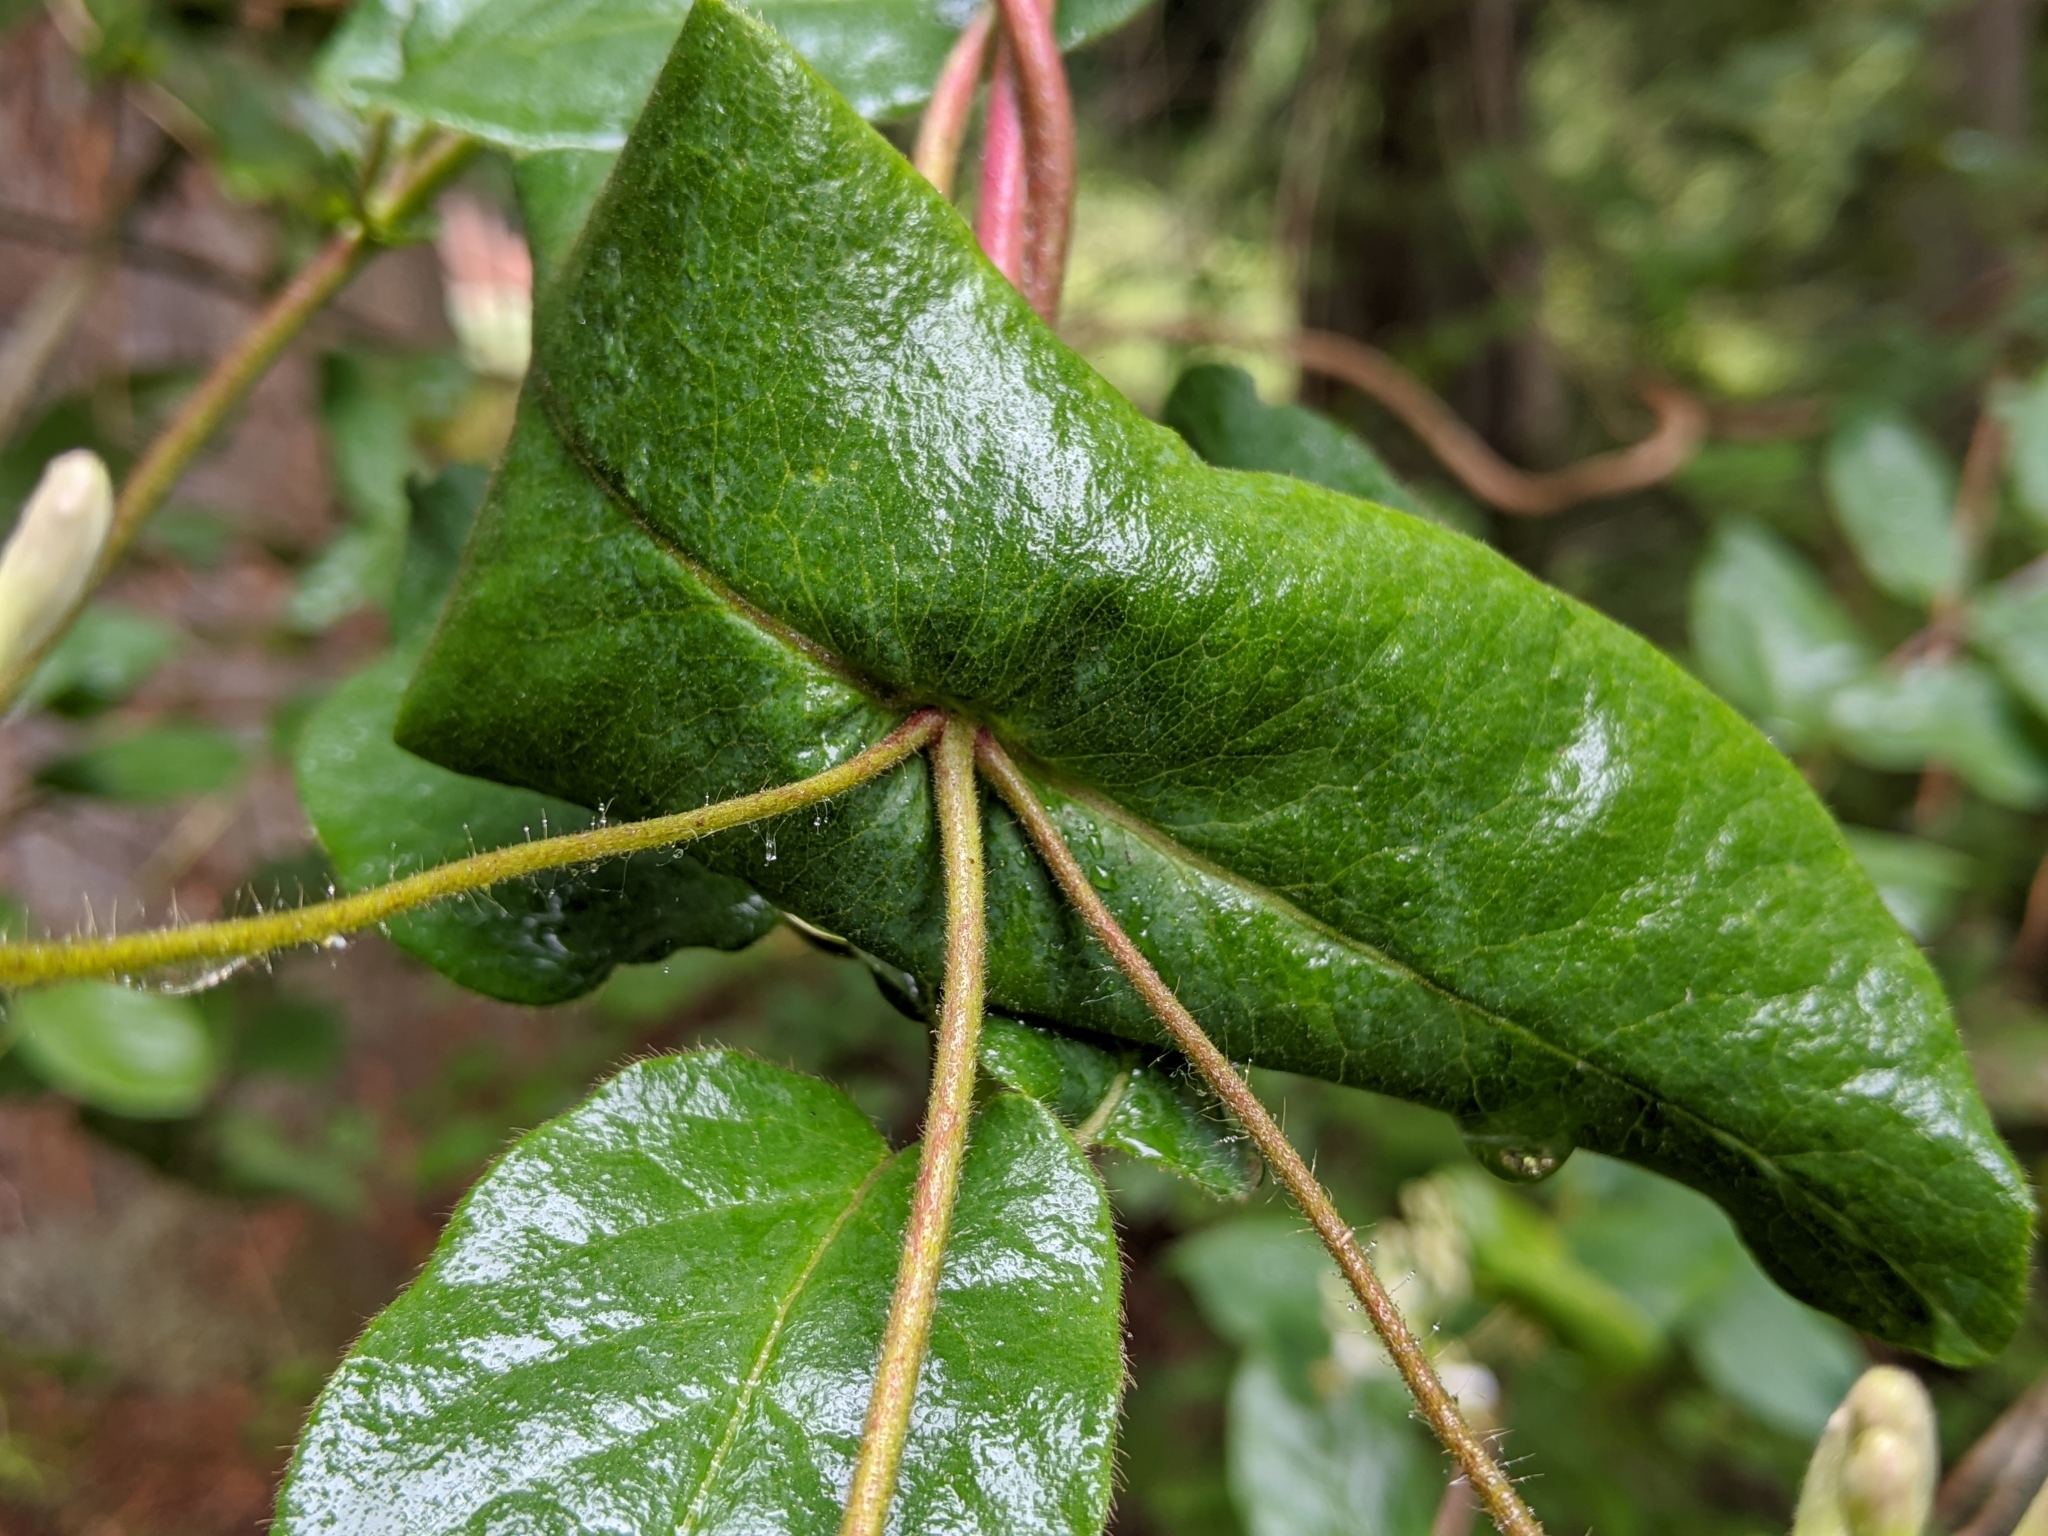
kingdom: Plantae
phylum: Tracheophyta
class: Magnoliopsida
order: Dipsacales
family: Caprifoliaceae
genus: Lonicera
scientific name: Lonicera hispidula
